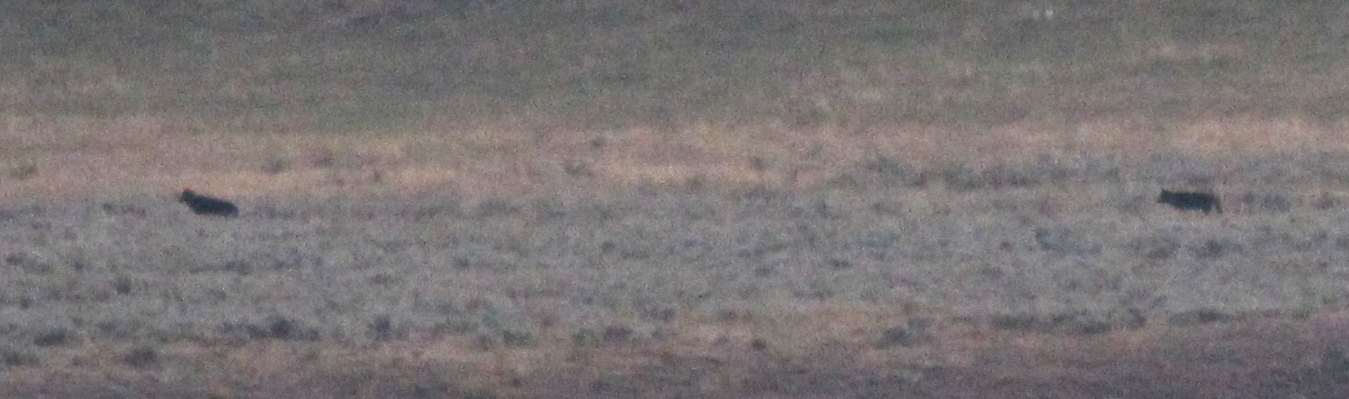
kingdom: Animalia
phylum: Chordata
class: Mammalia
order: Carnivora
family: Canidae
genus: Canis
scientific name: Canis lupus
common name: Gray wolf
